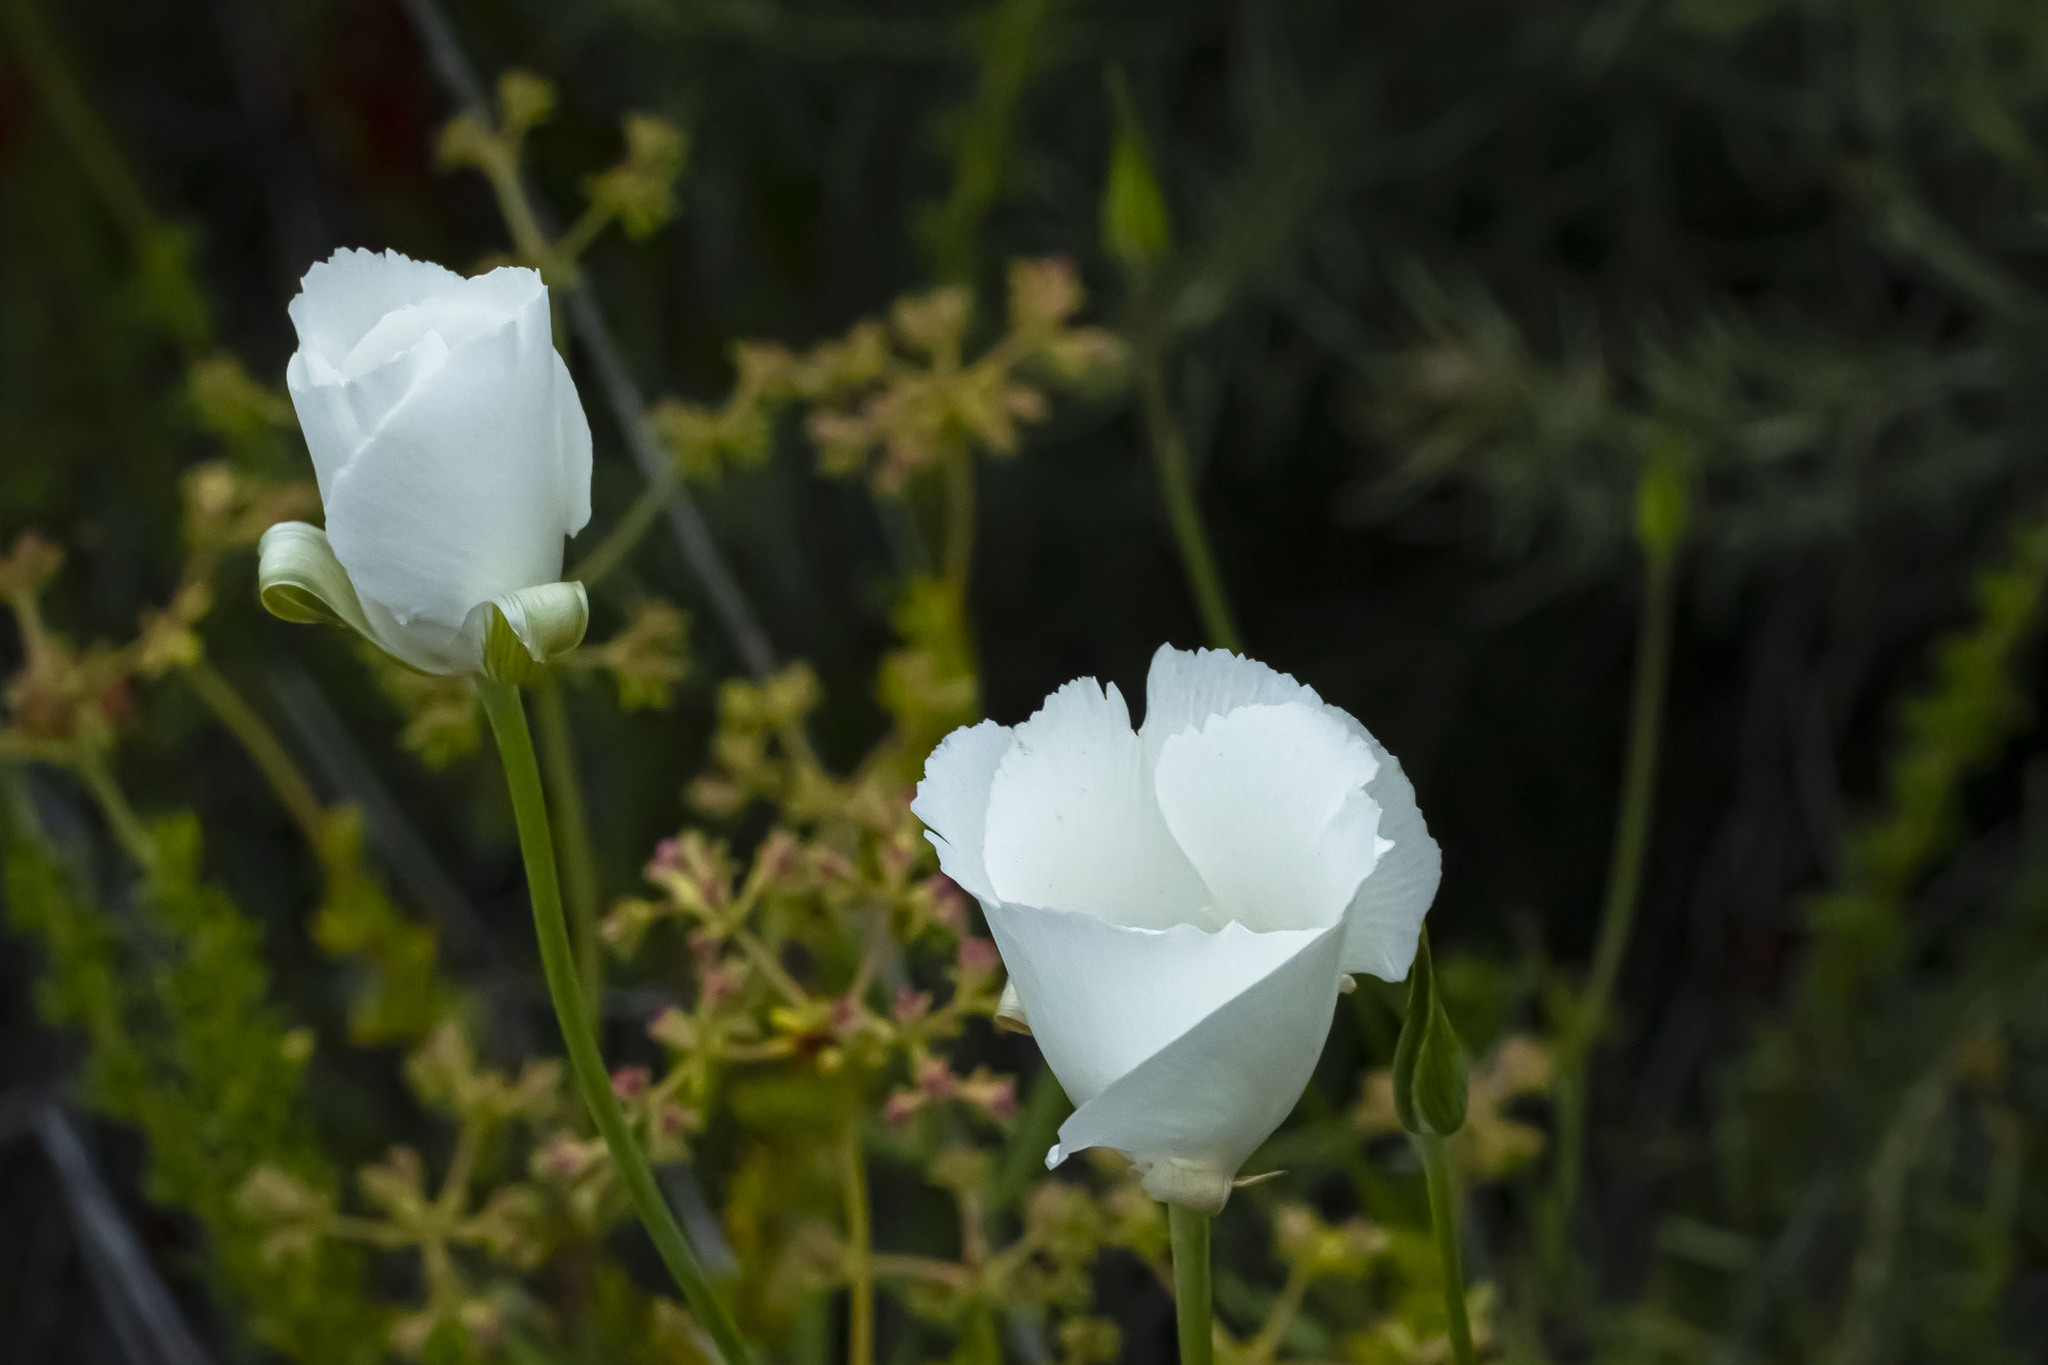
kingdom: Plantae
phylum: Tracheophyta
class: Liliopsida
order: Liliales
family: Liliaceae
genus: Calochortus
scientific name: Calochortus splendens
